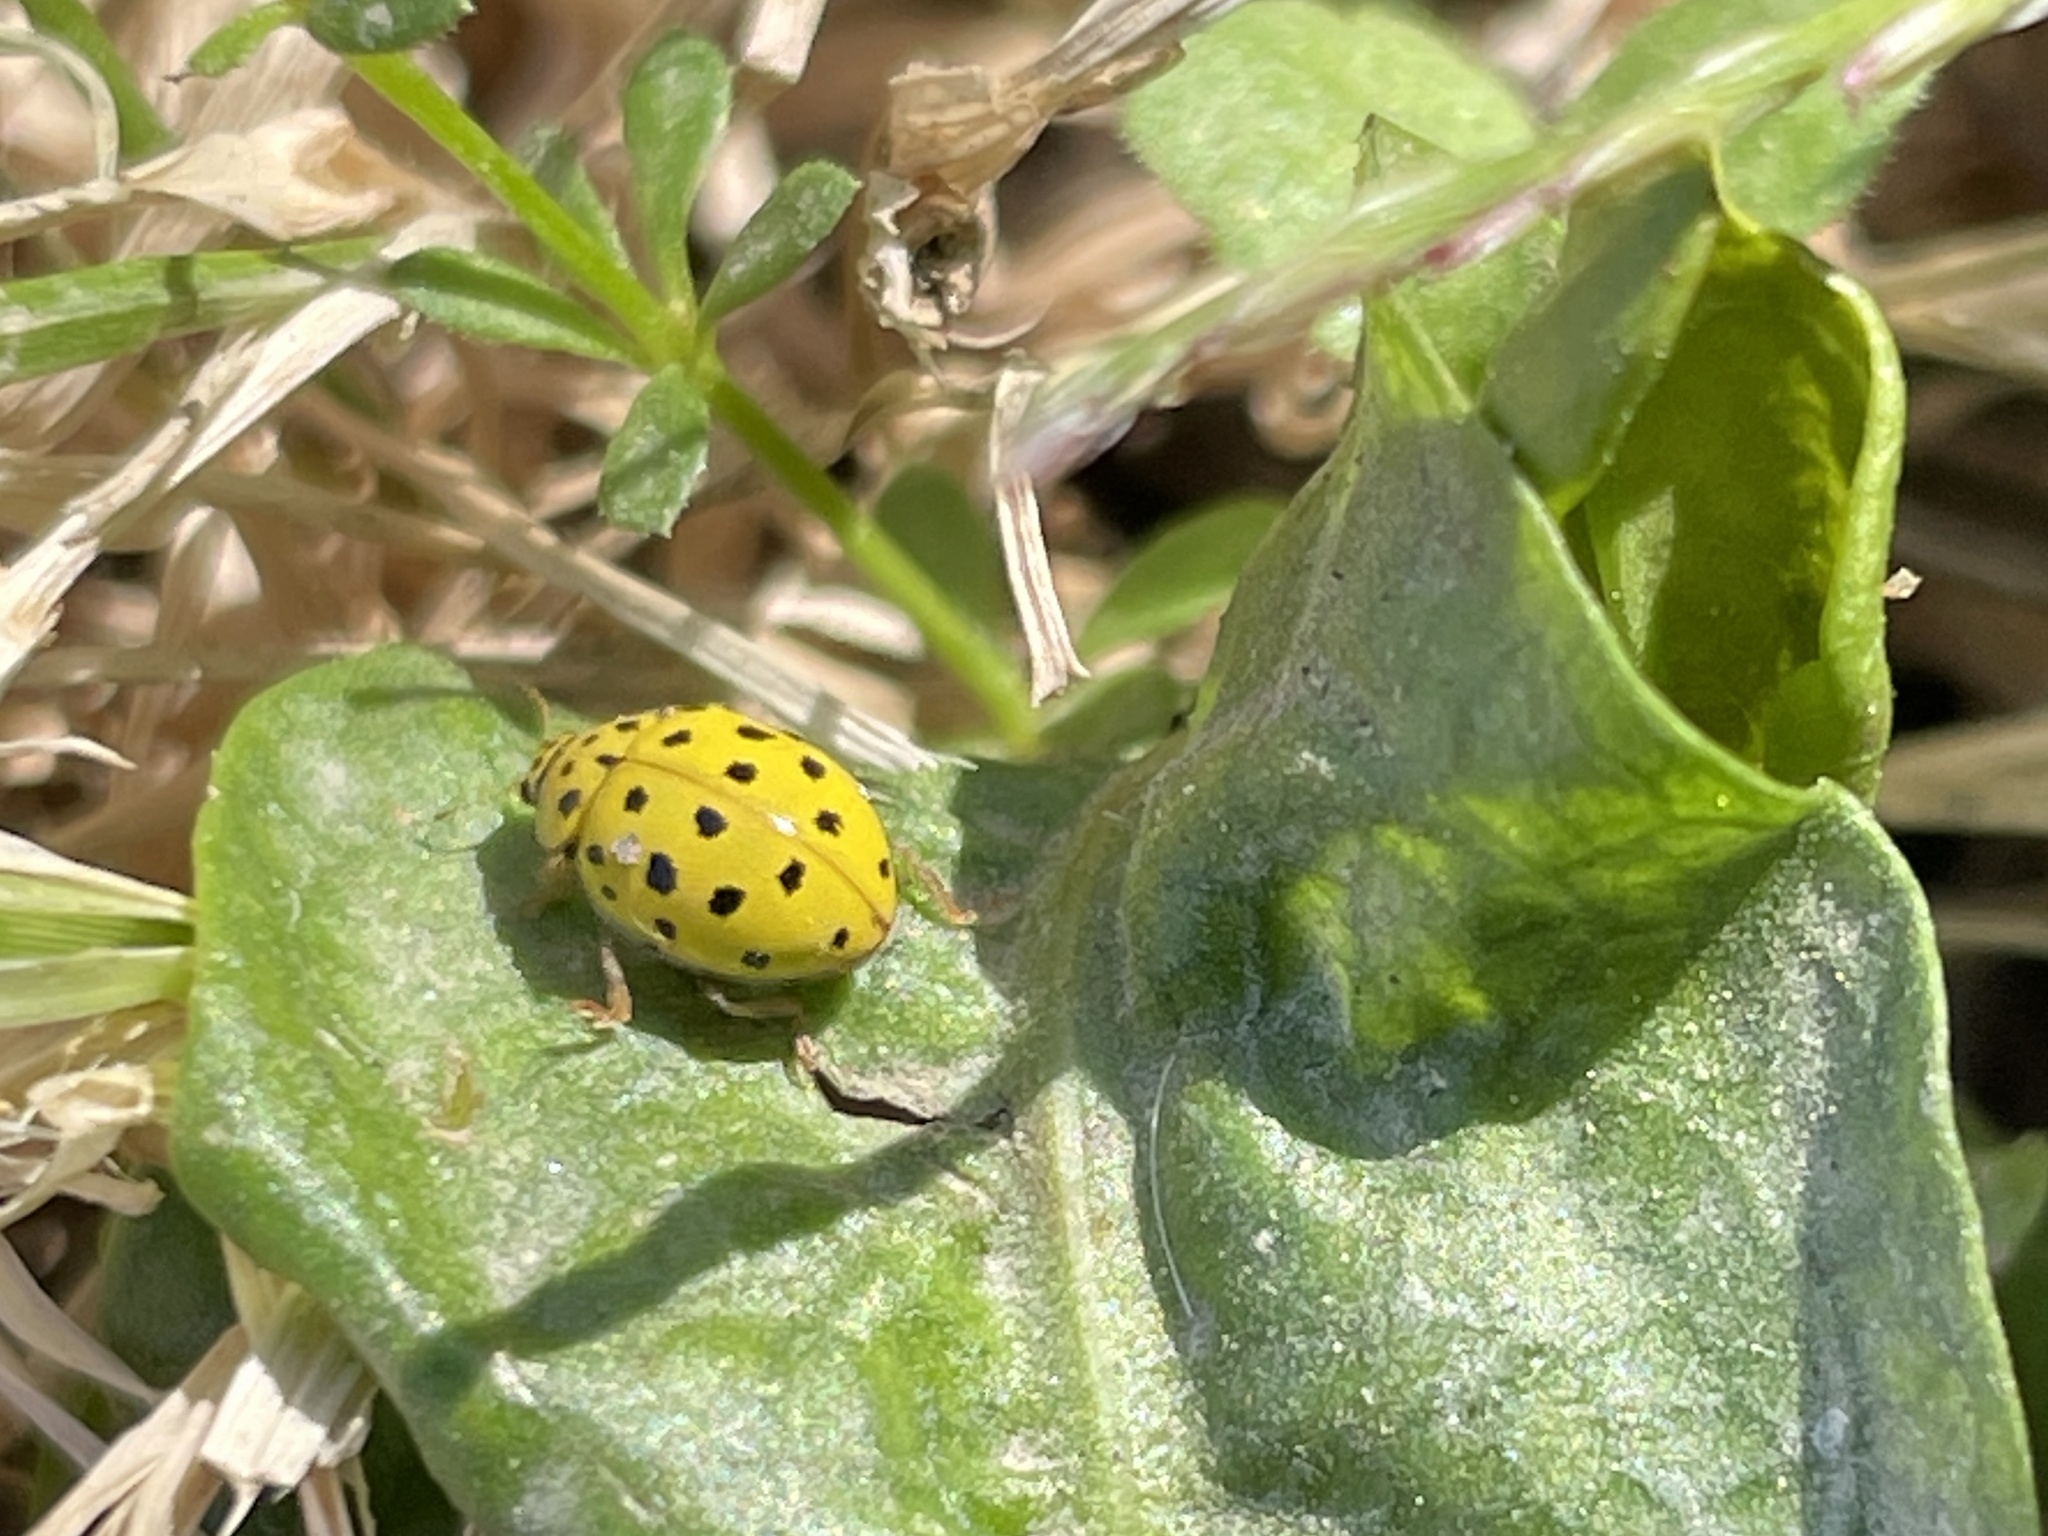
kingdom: Animalia
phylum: Arthropoda
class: Insecta
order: Coleoptera
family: Coccinellidae
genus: Psyllobora
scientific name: Psyllobora vigintiduopunctata
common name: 22-spot ladybird
